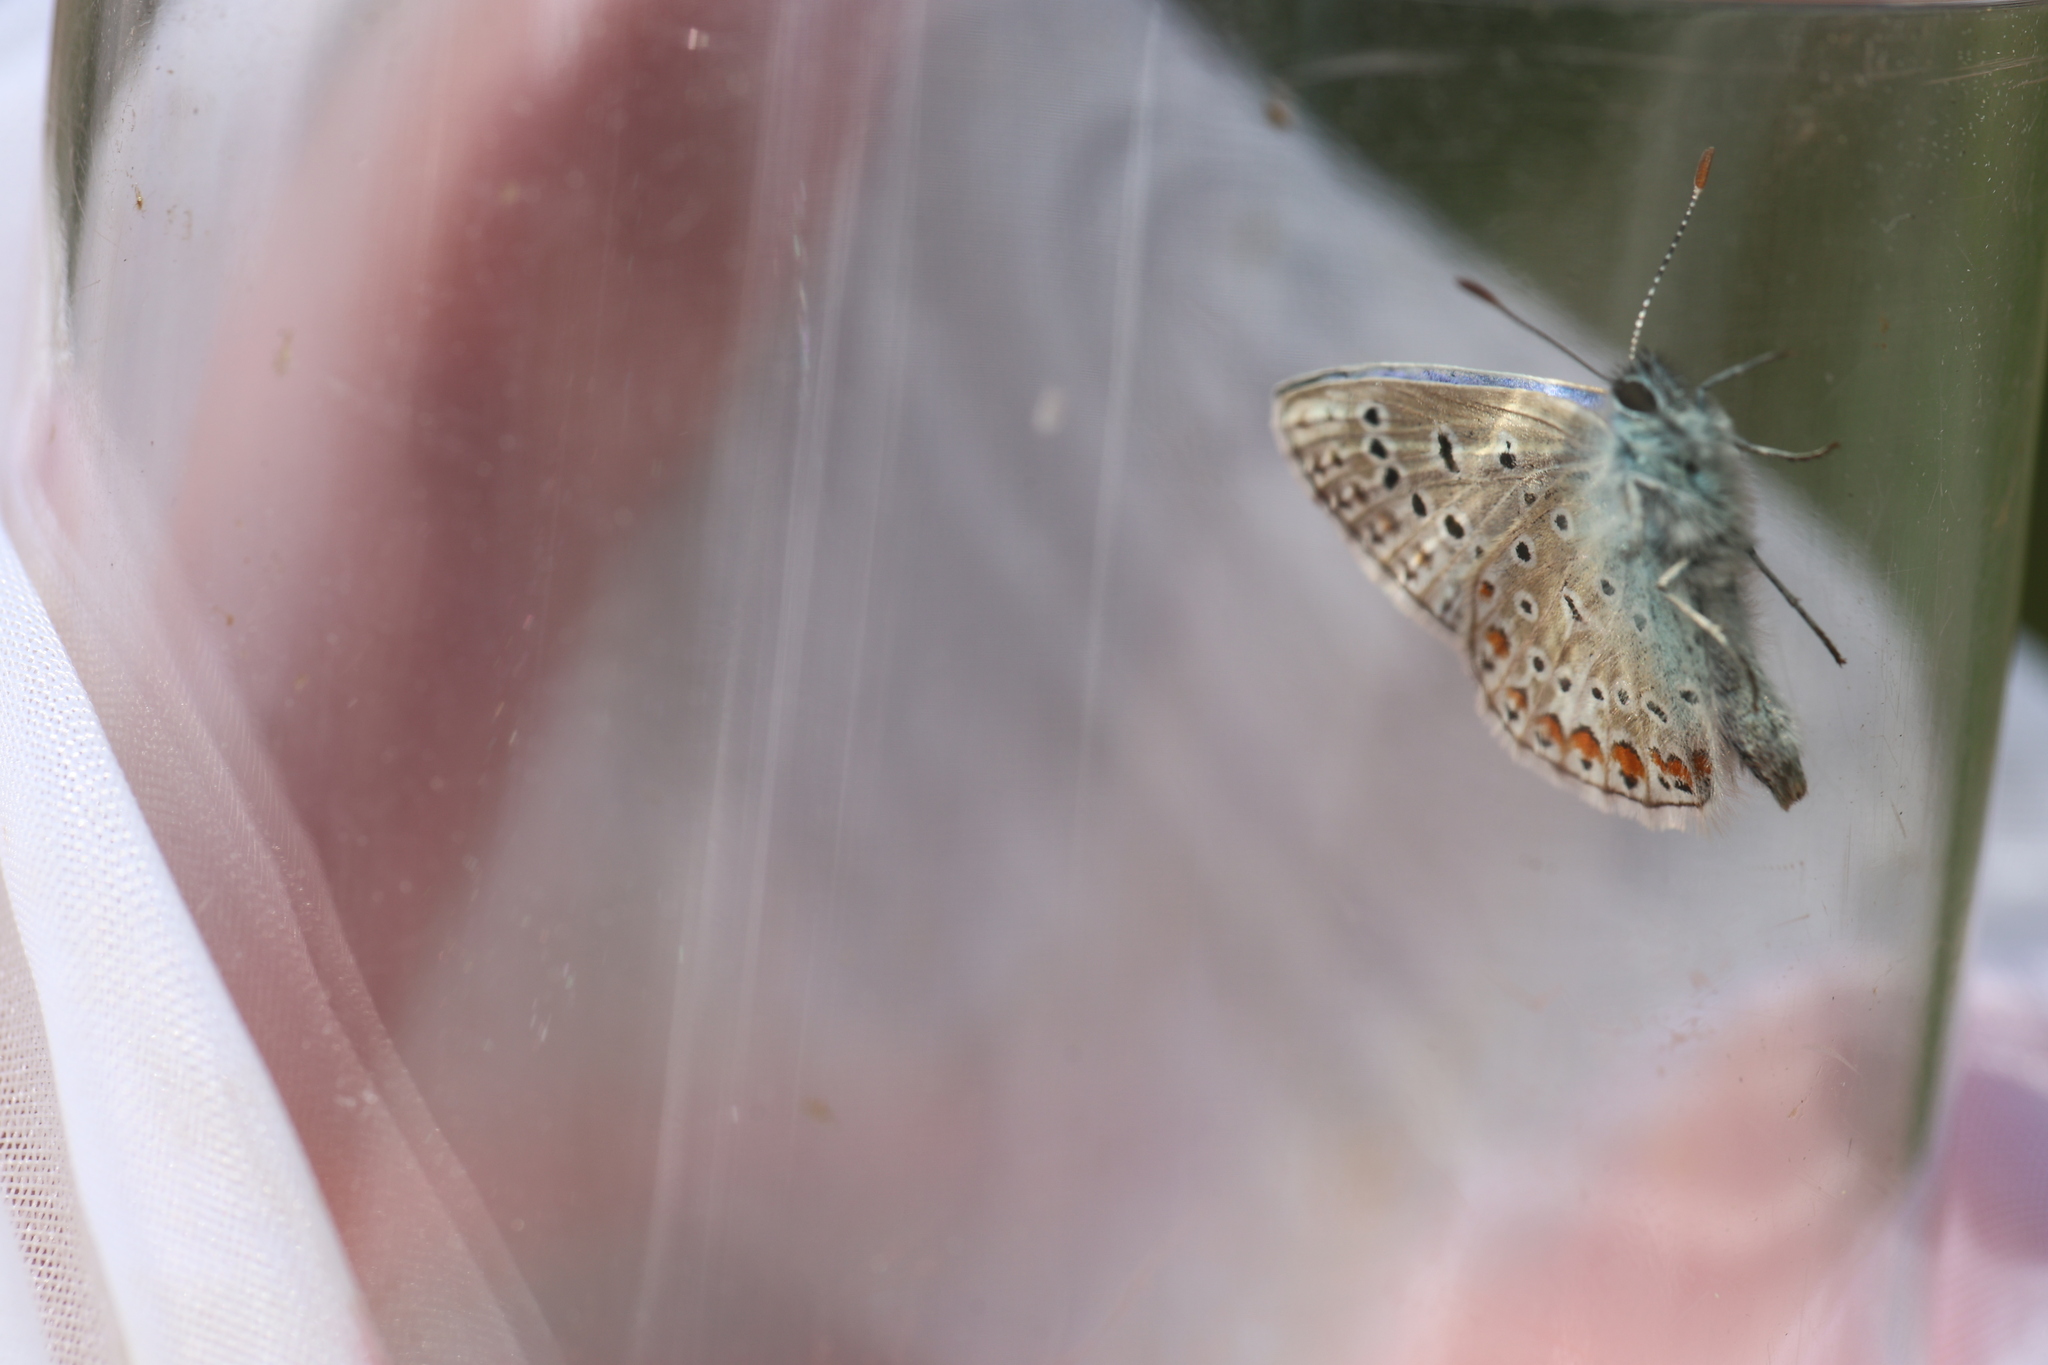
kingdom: Animalia
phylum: Arthropoda
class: Insecta
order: Lepidoptera
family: Lycaenidae
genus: Polyommatus
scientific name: Polyommatus icarus
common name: Common blue
